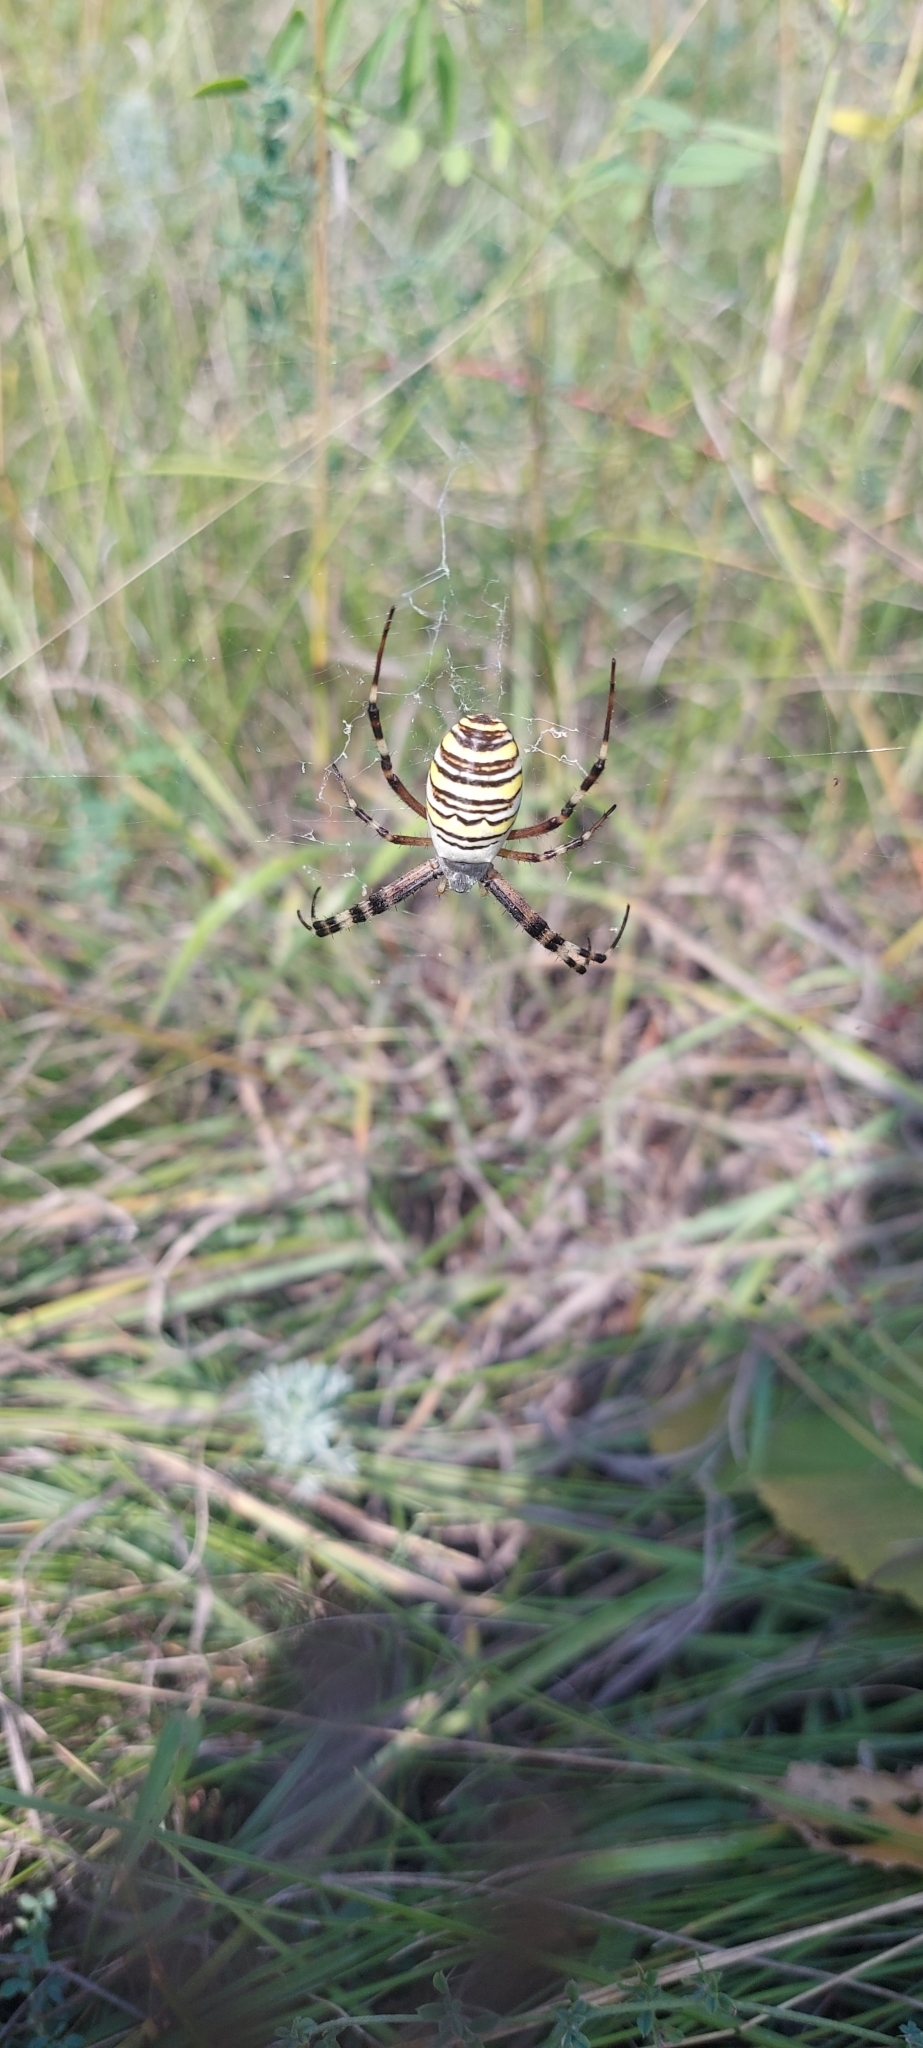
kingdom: Animalia
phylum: Arthropoda
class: Arachnida
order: Araneae
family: Araneidae
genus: Argiope
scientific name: Argiope bruennichi
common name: Wasp spider
